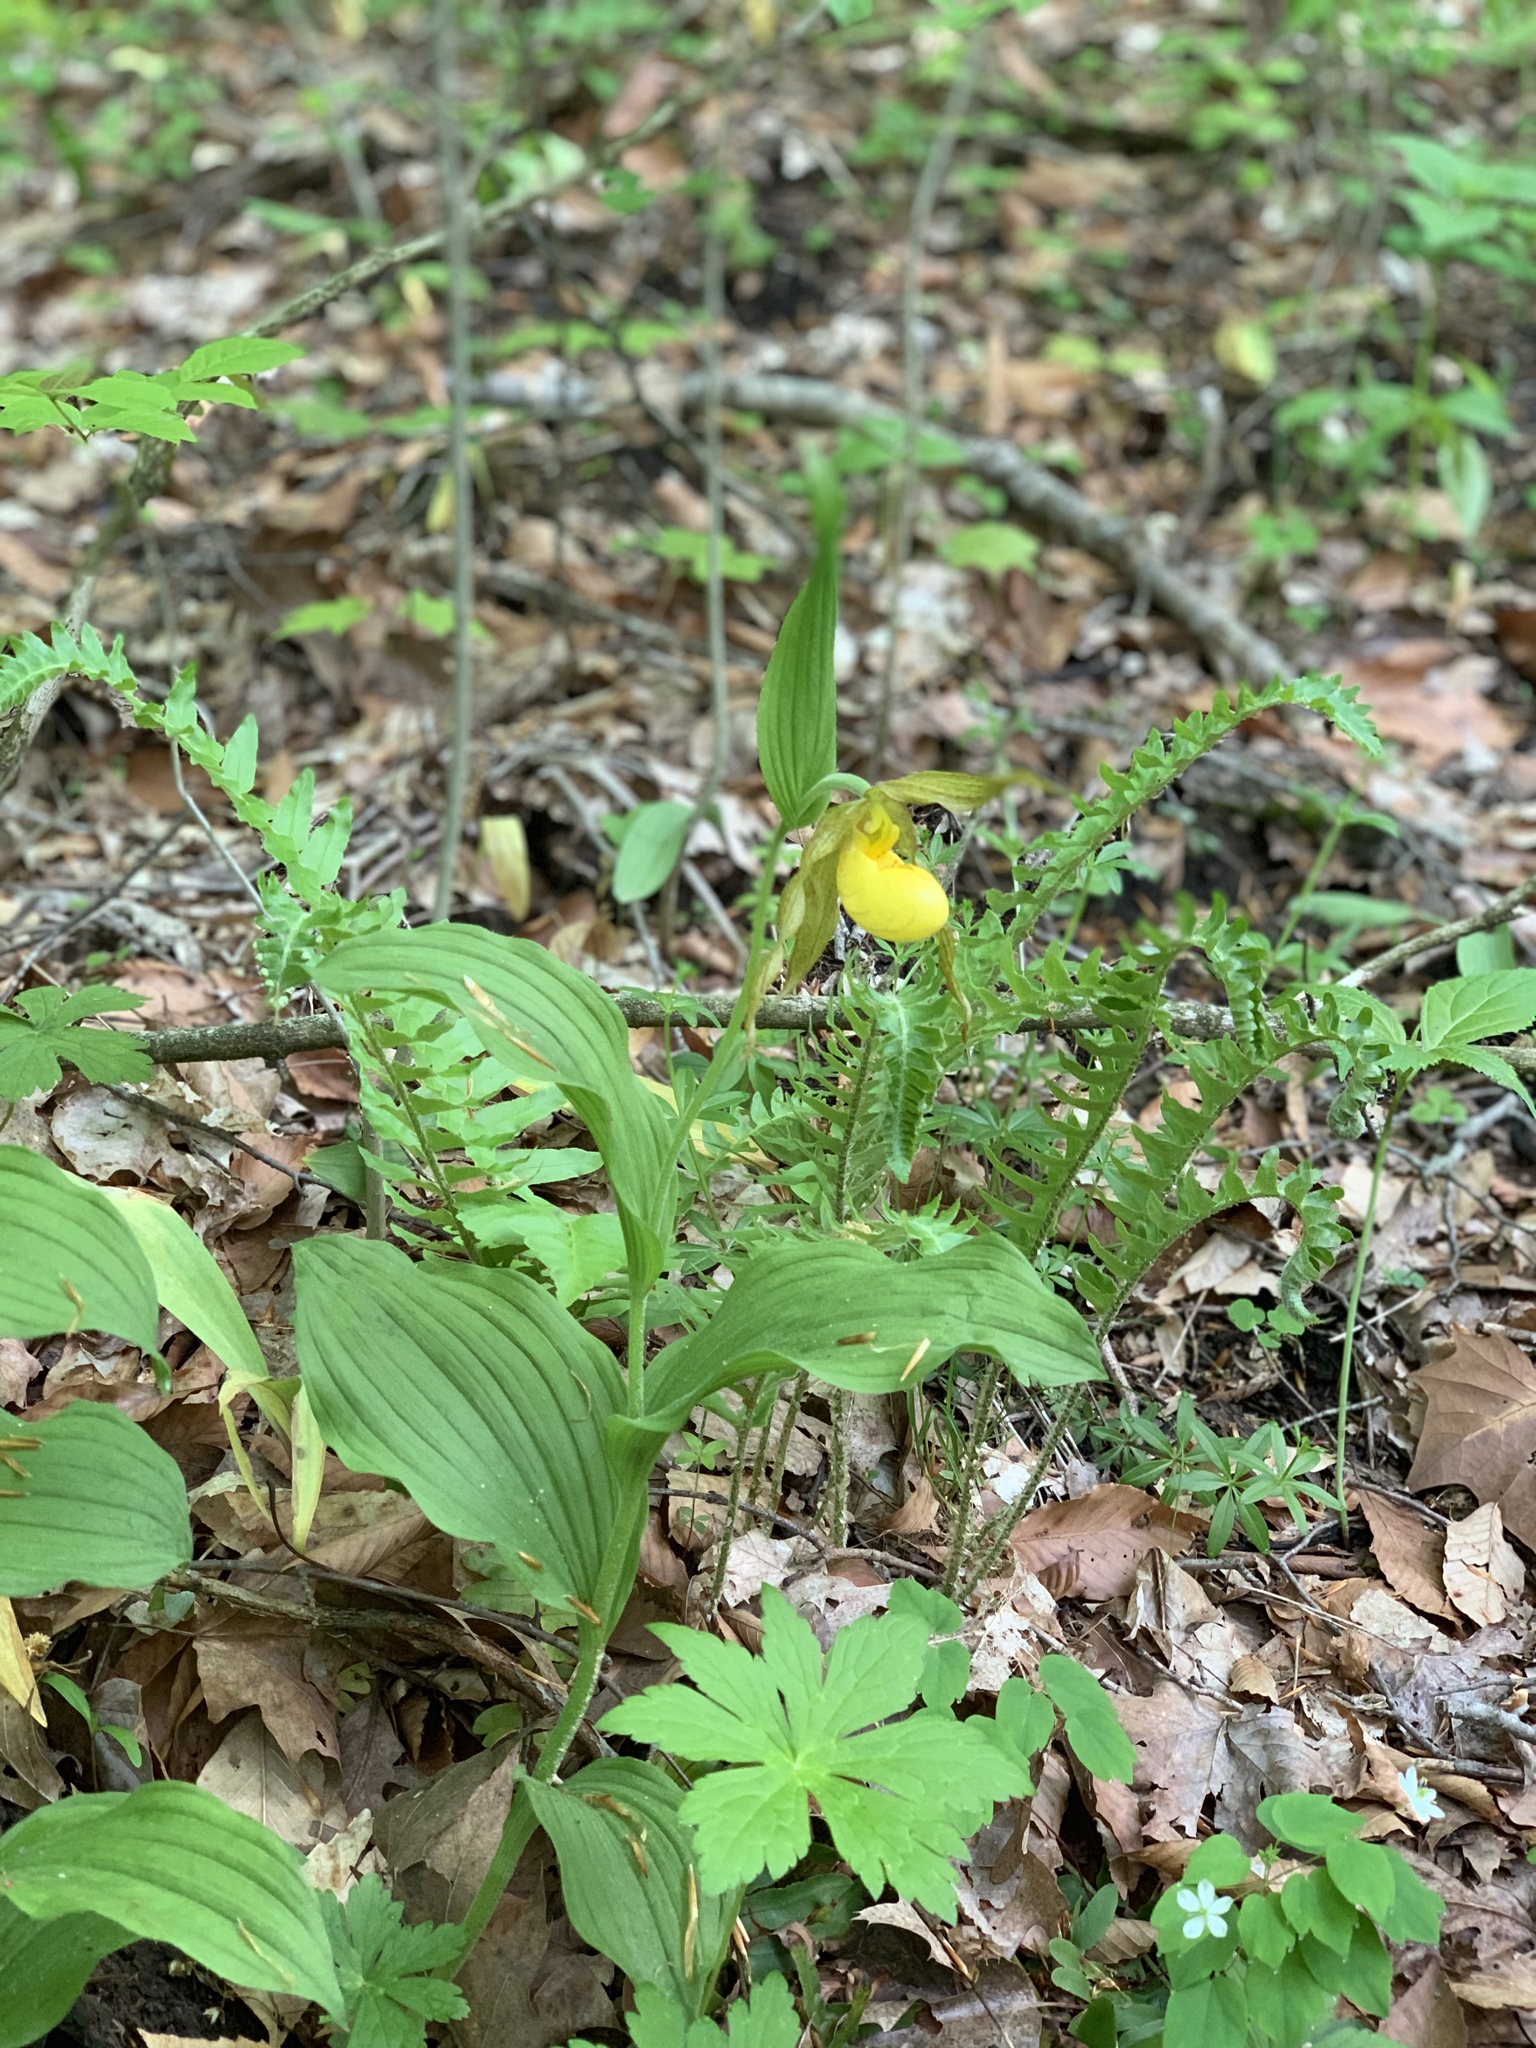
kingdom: Plantae
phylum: Tracheophyta
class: Liliopsida
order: Asparagales
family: Orchidaceae
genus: Cypripedium
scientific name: Cypripedium parviflorum
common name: American yellow lady's-slipper
